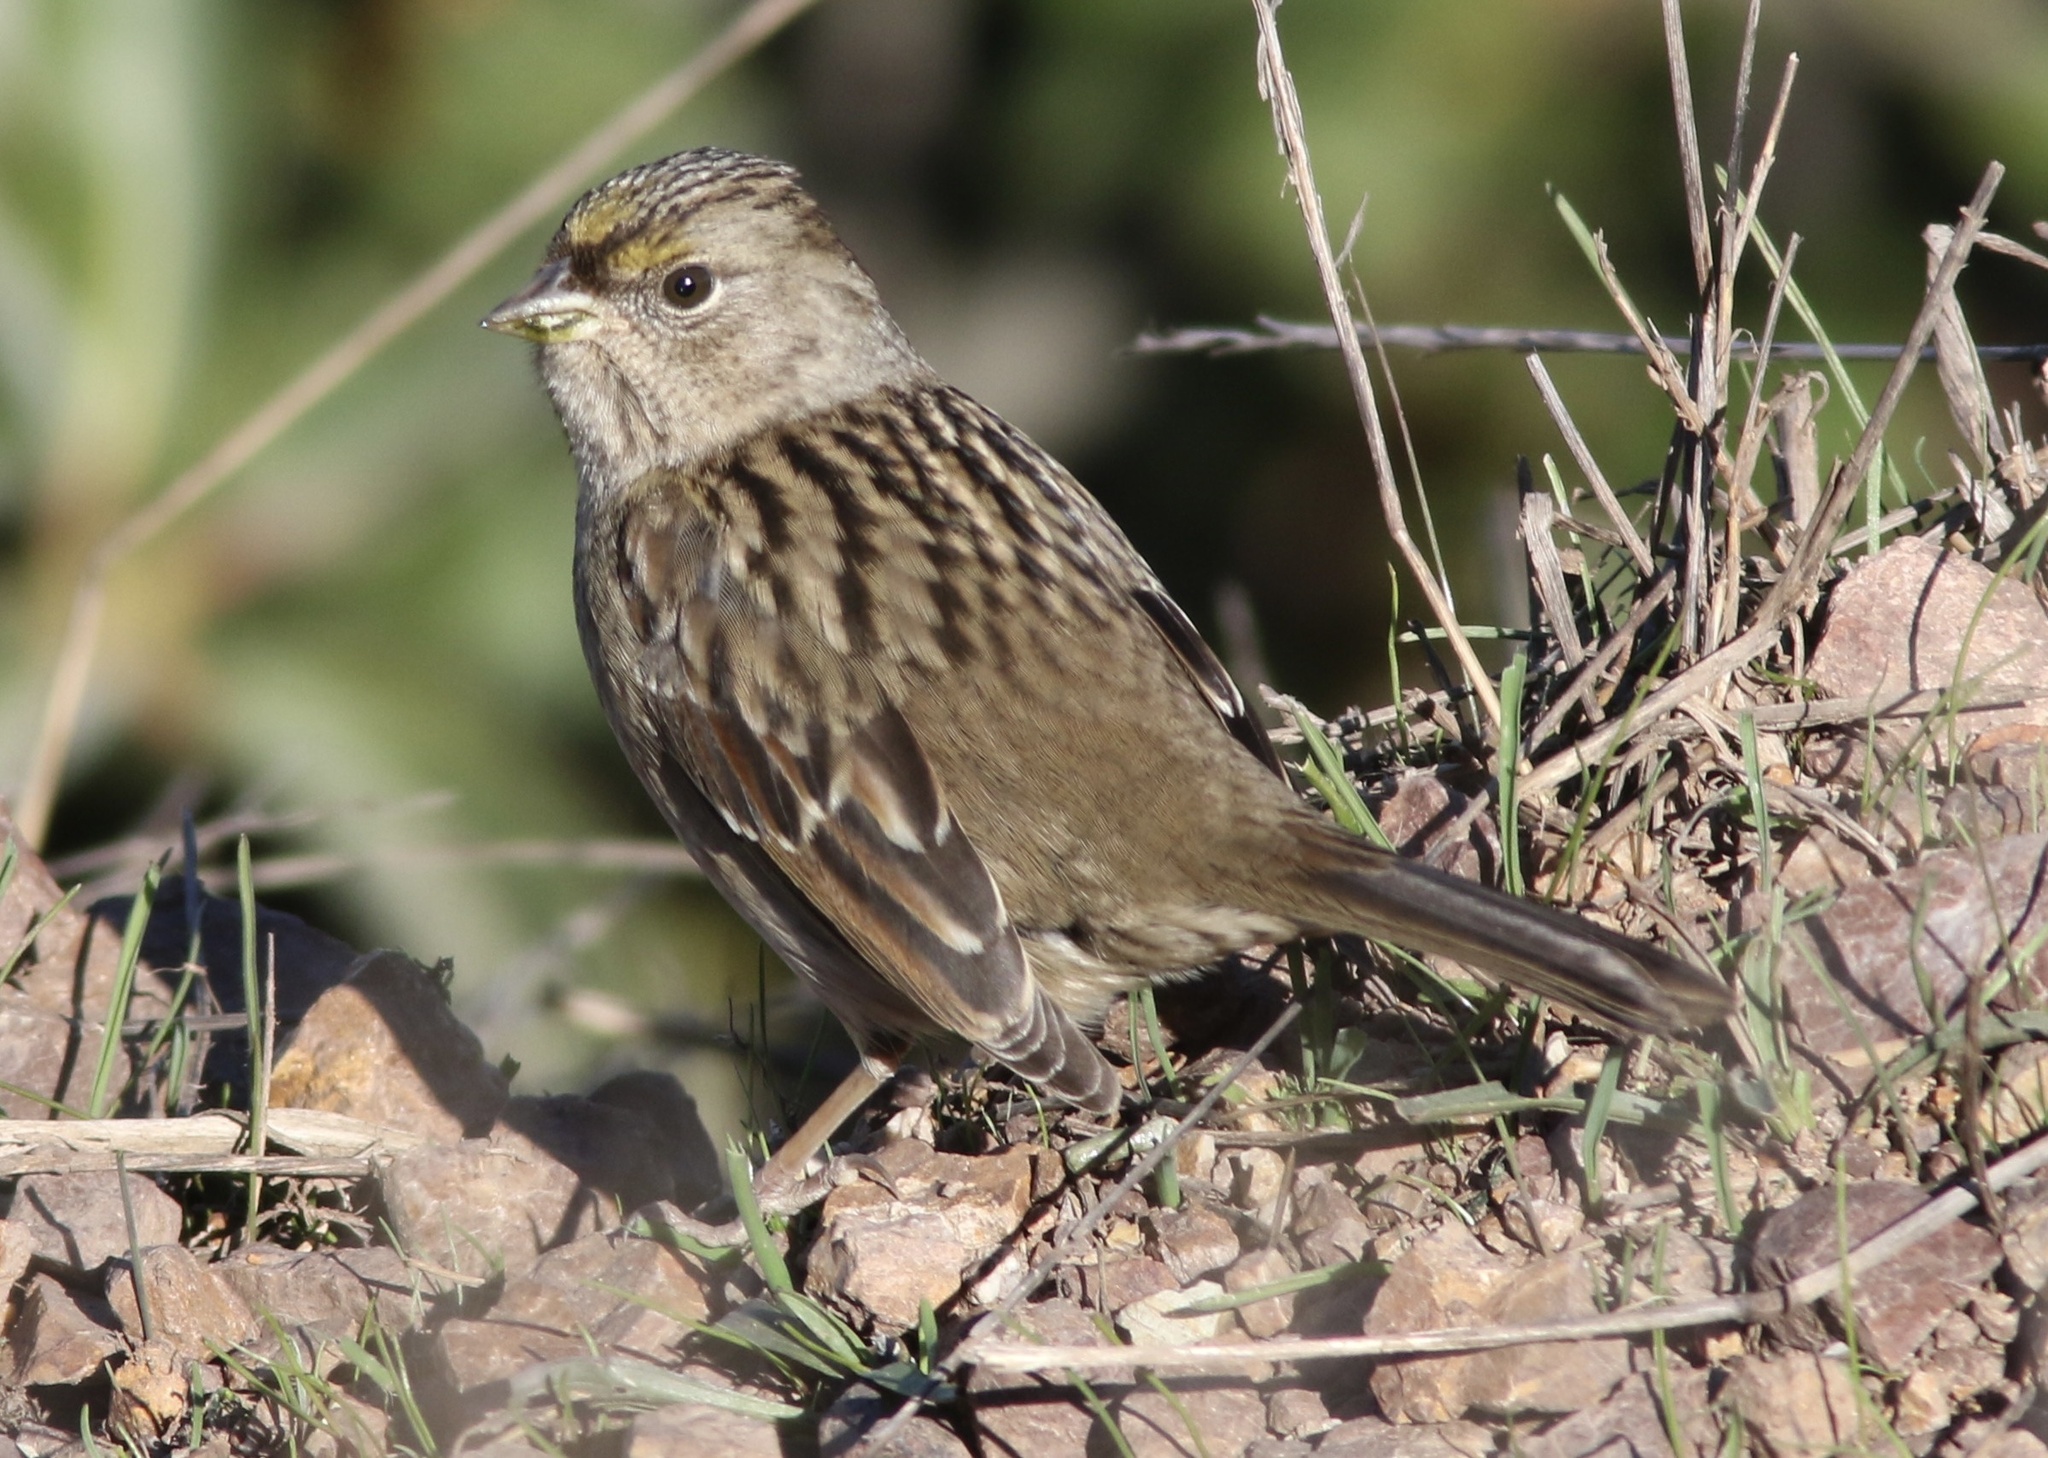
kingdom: Animalia
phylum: Chordata
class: Aves
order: Passeriformes
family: Passerellidae
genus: Zonotrichia
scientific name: Zonotrichia atricapilla
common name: Golden-crowned sparrow
